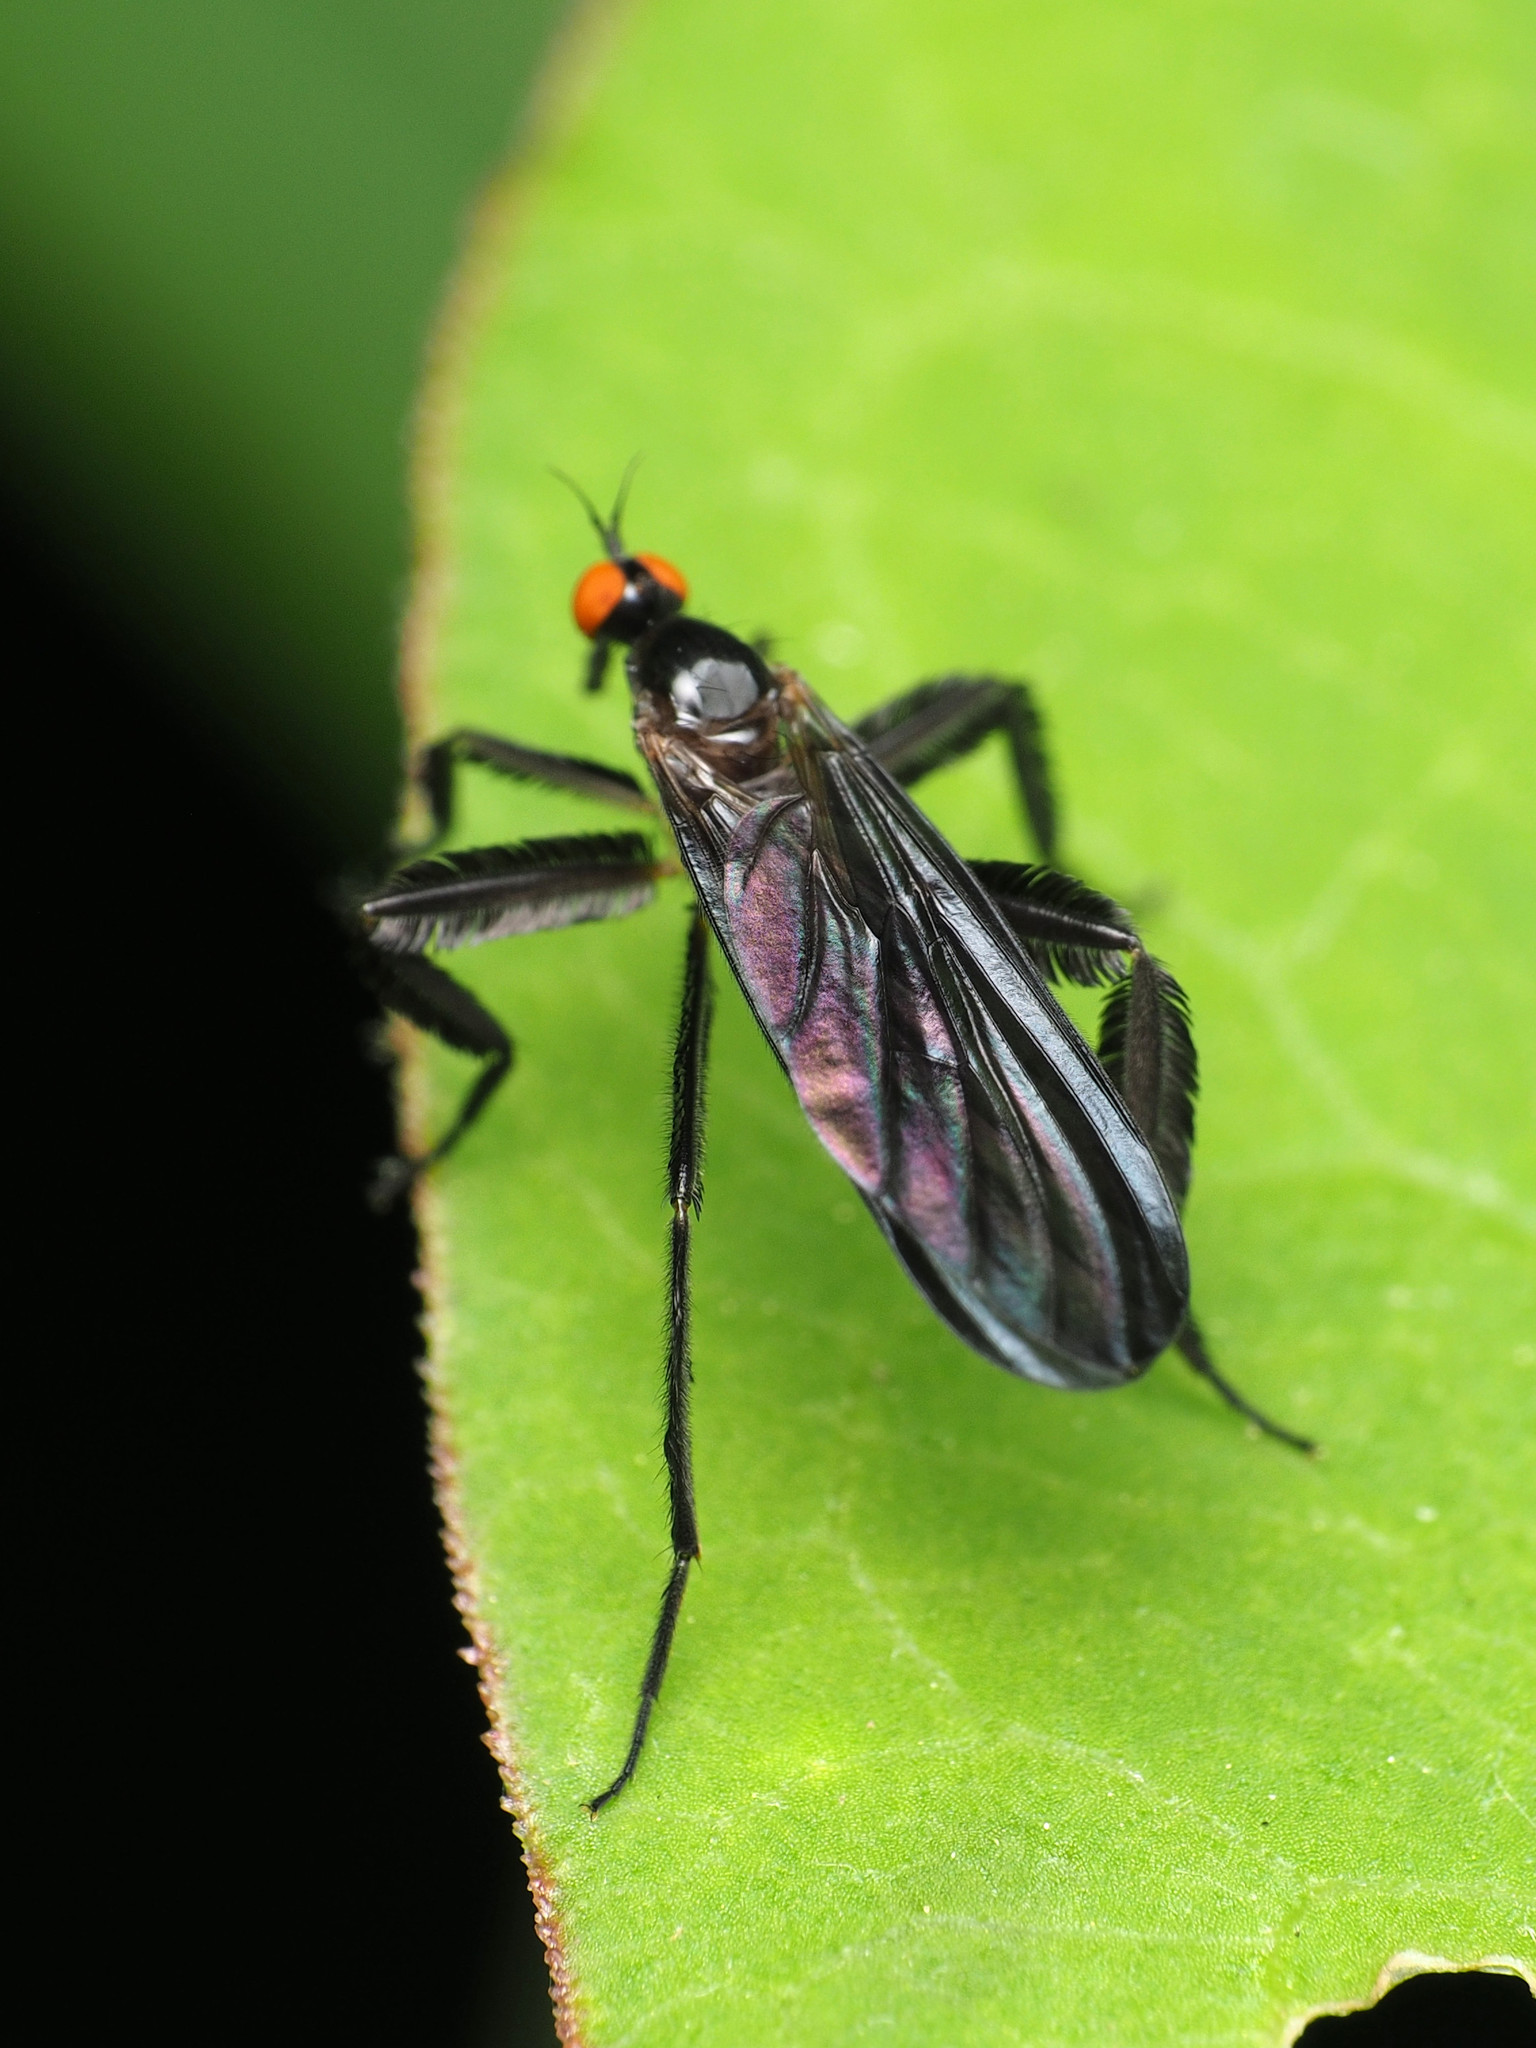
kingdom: Animalia
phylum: Arthropoda
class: Insecta
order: Diptera
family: Empididae
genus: Rhamphomyia
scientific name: Rhamphomyia longicauda
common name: Long-tailed dance fly
